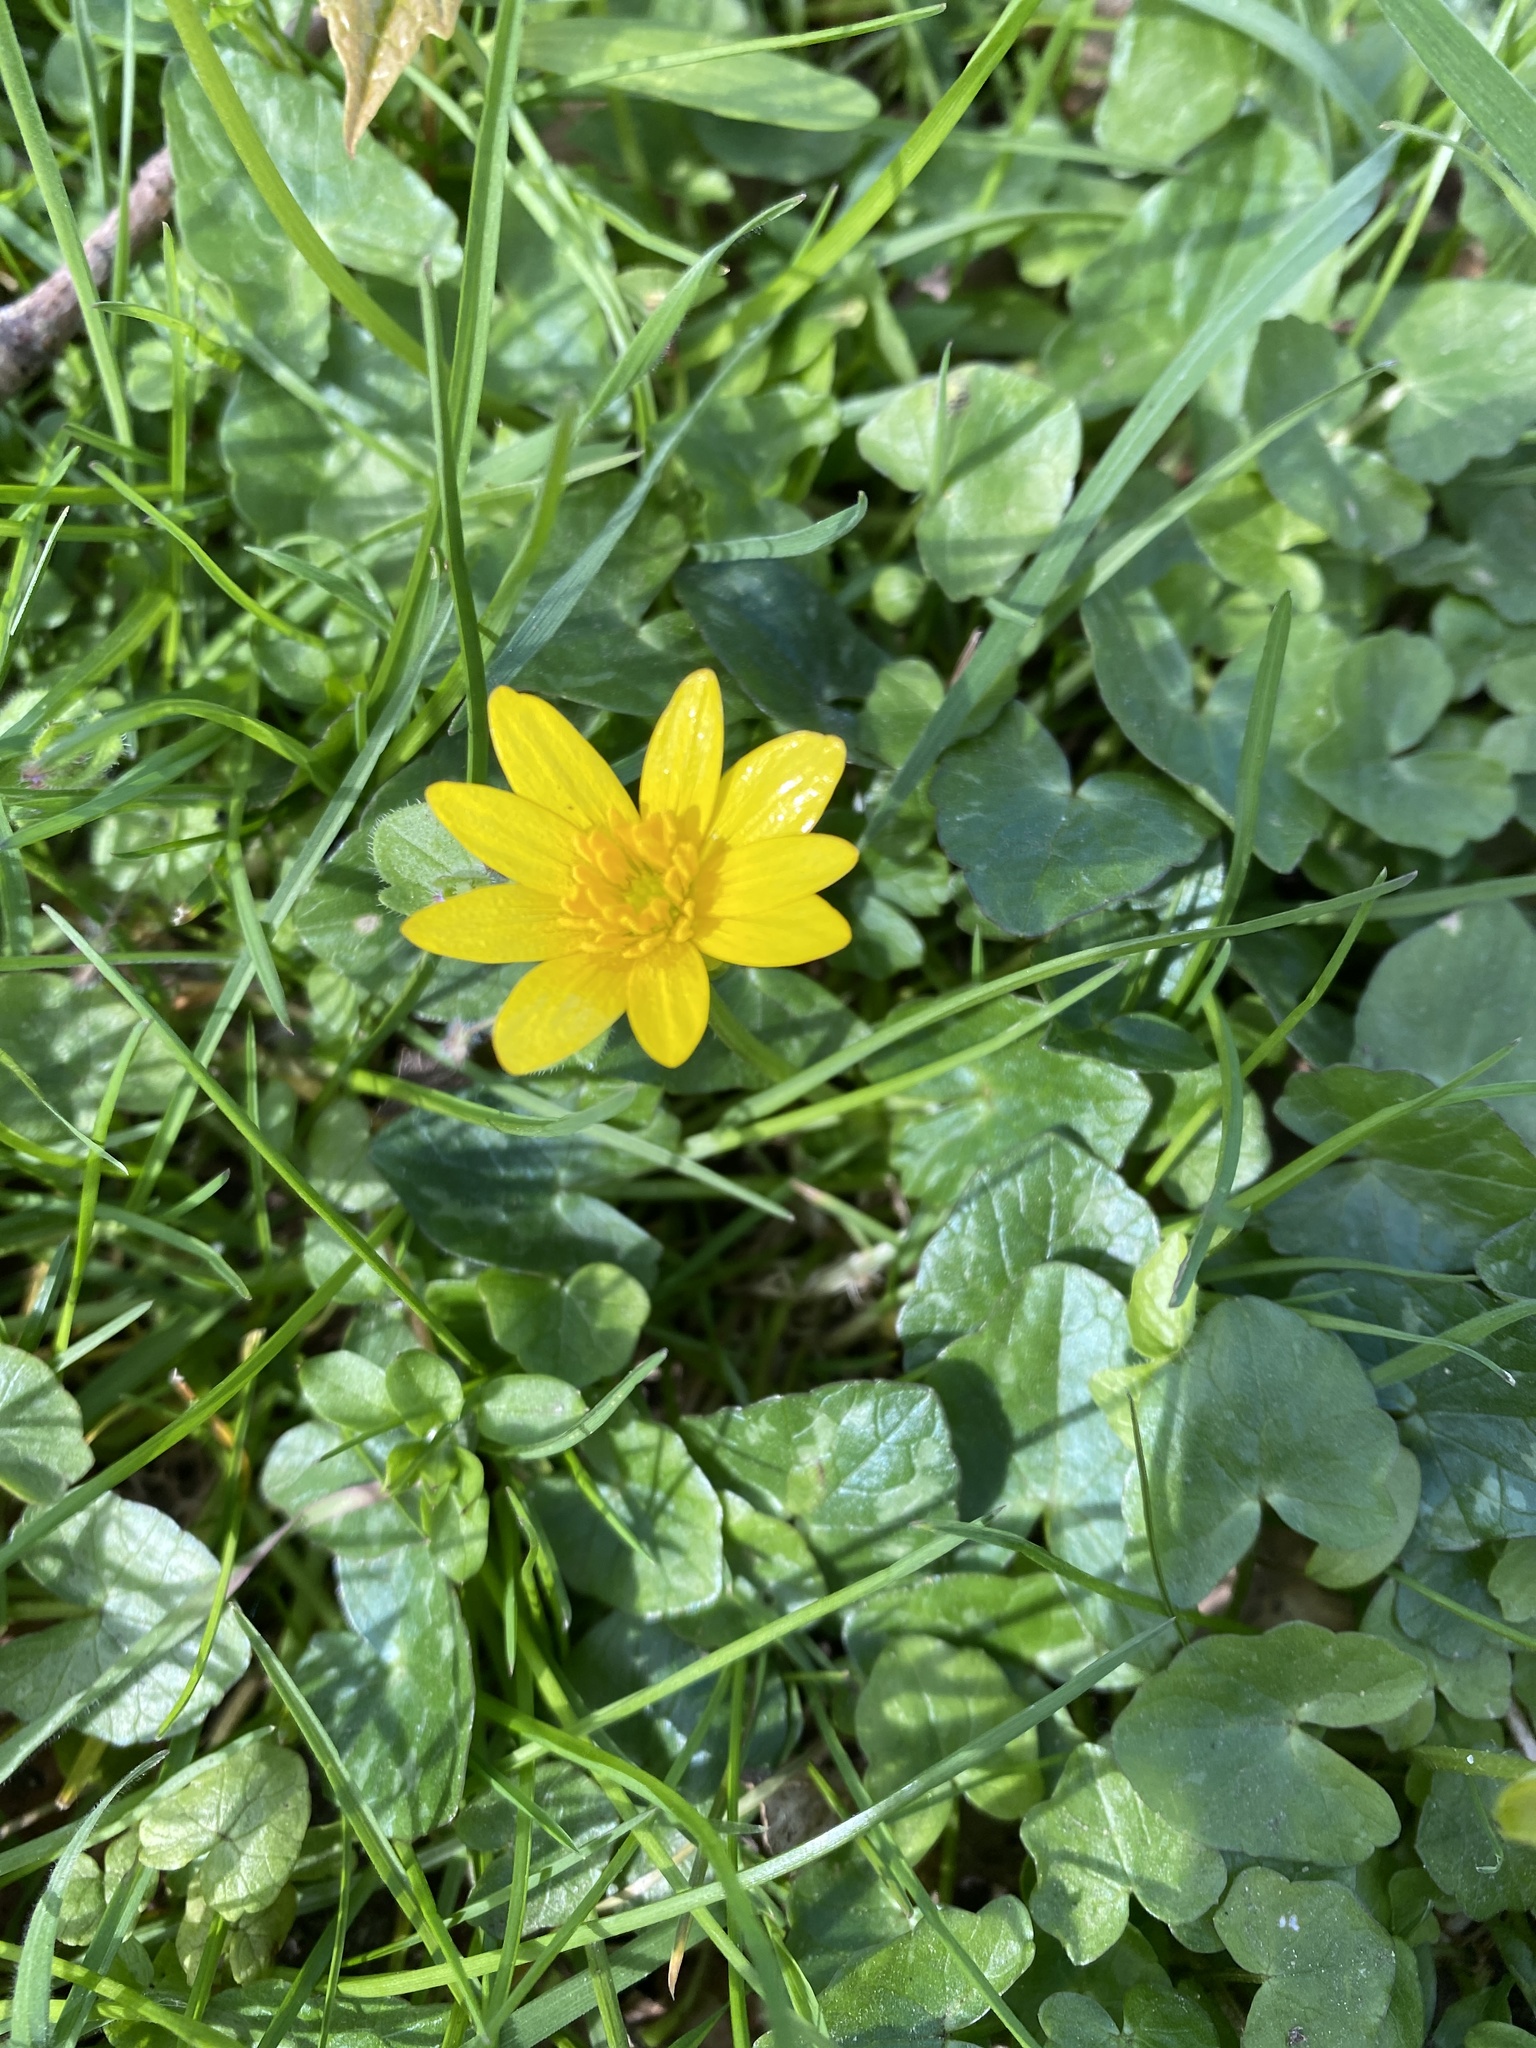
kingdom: Plantae
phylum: Tracheophyta
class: Magnoliopsida
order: Ranunculales
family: Ranunculaceae
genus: Ficaria
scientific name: Ficaria verna
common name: Lesser celandine
